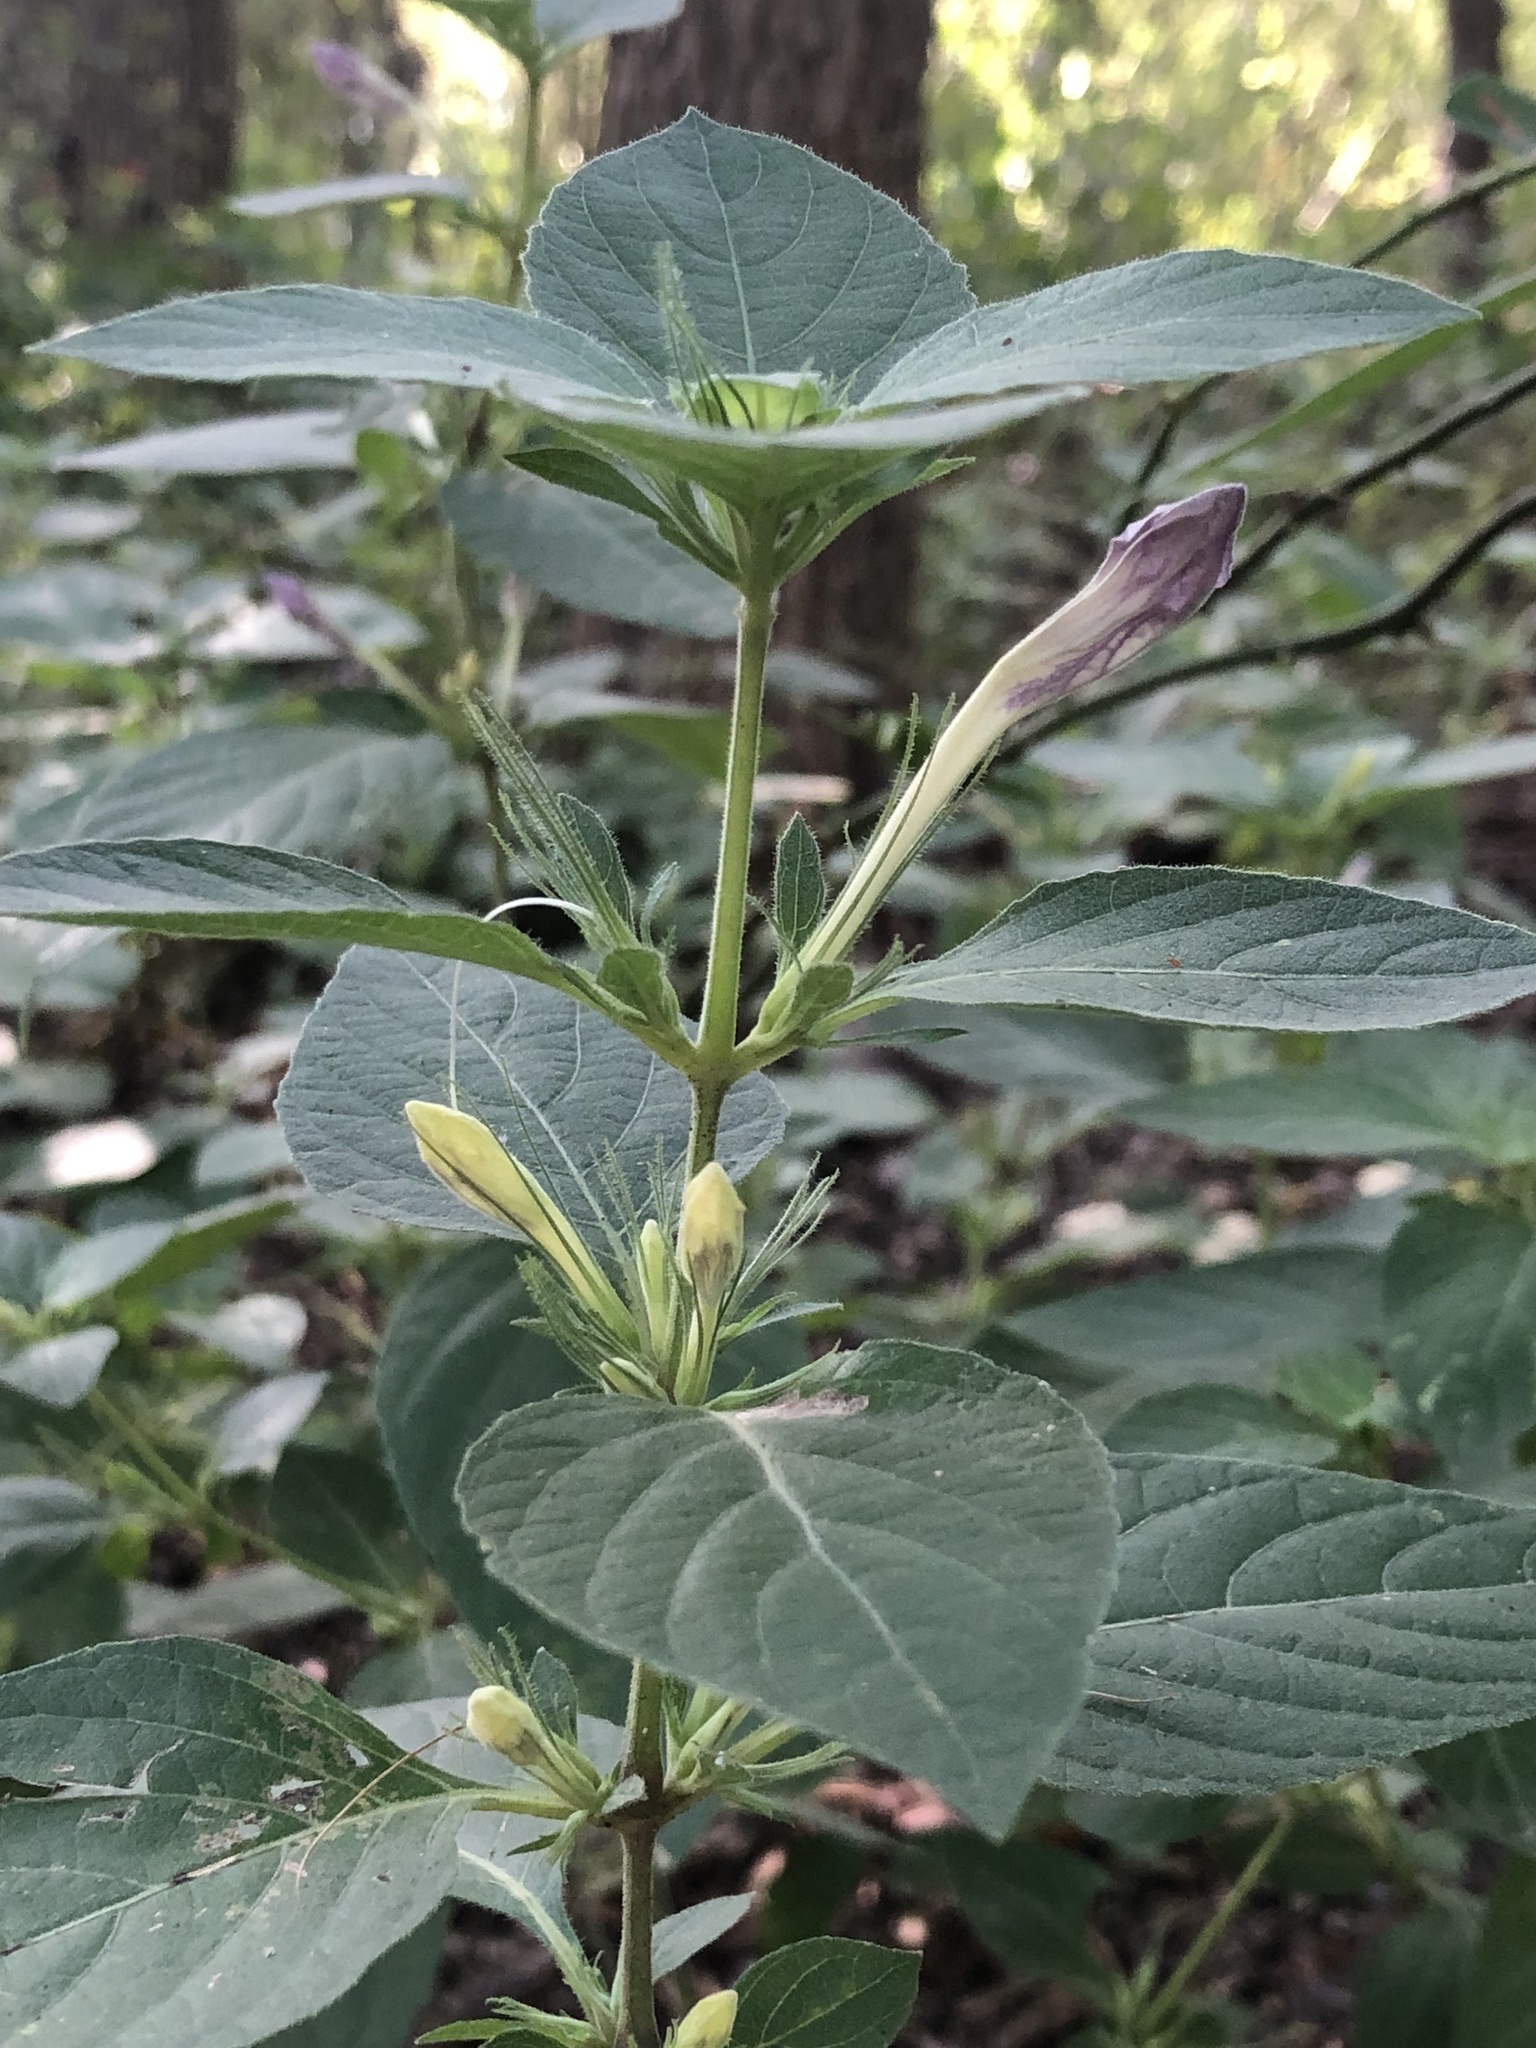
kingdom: Plantae
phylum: Tracheophyta
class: Magnoliopsida
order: Lamiales
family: Acanthaceae
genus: Ruellia
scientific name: Ruellia drummondiana
